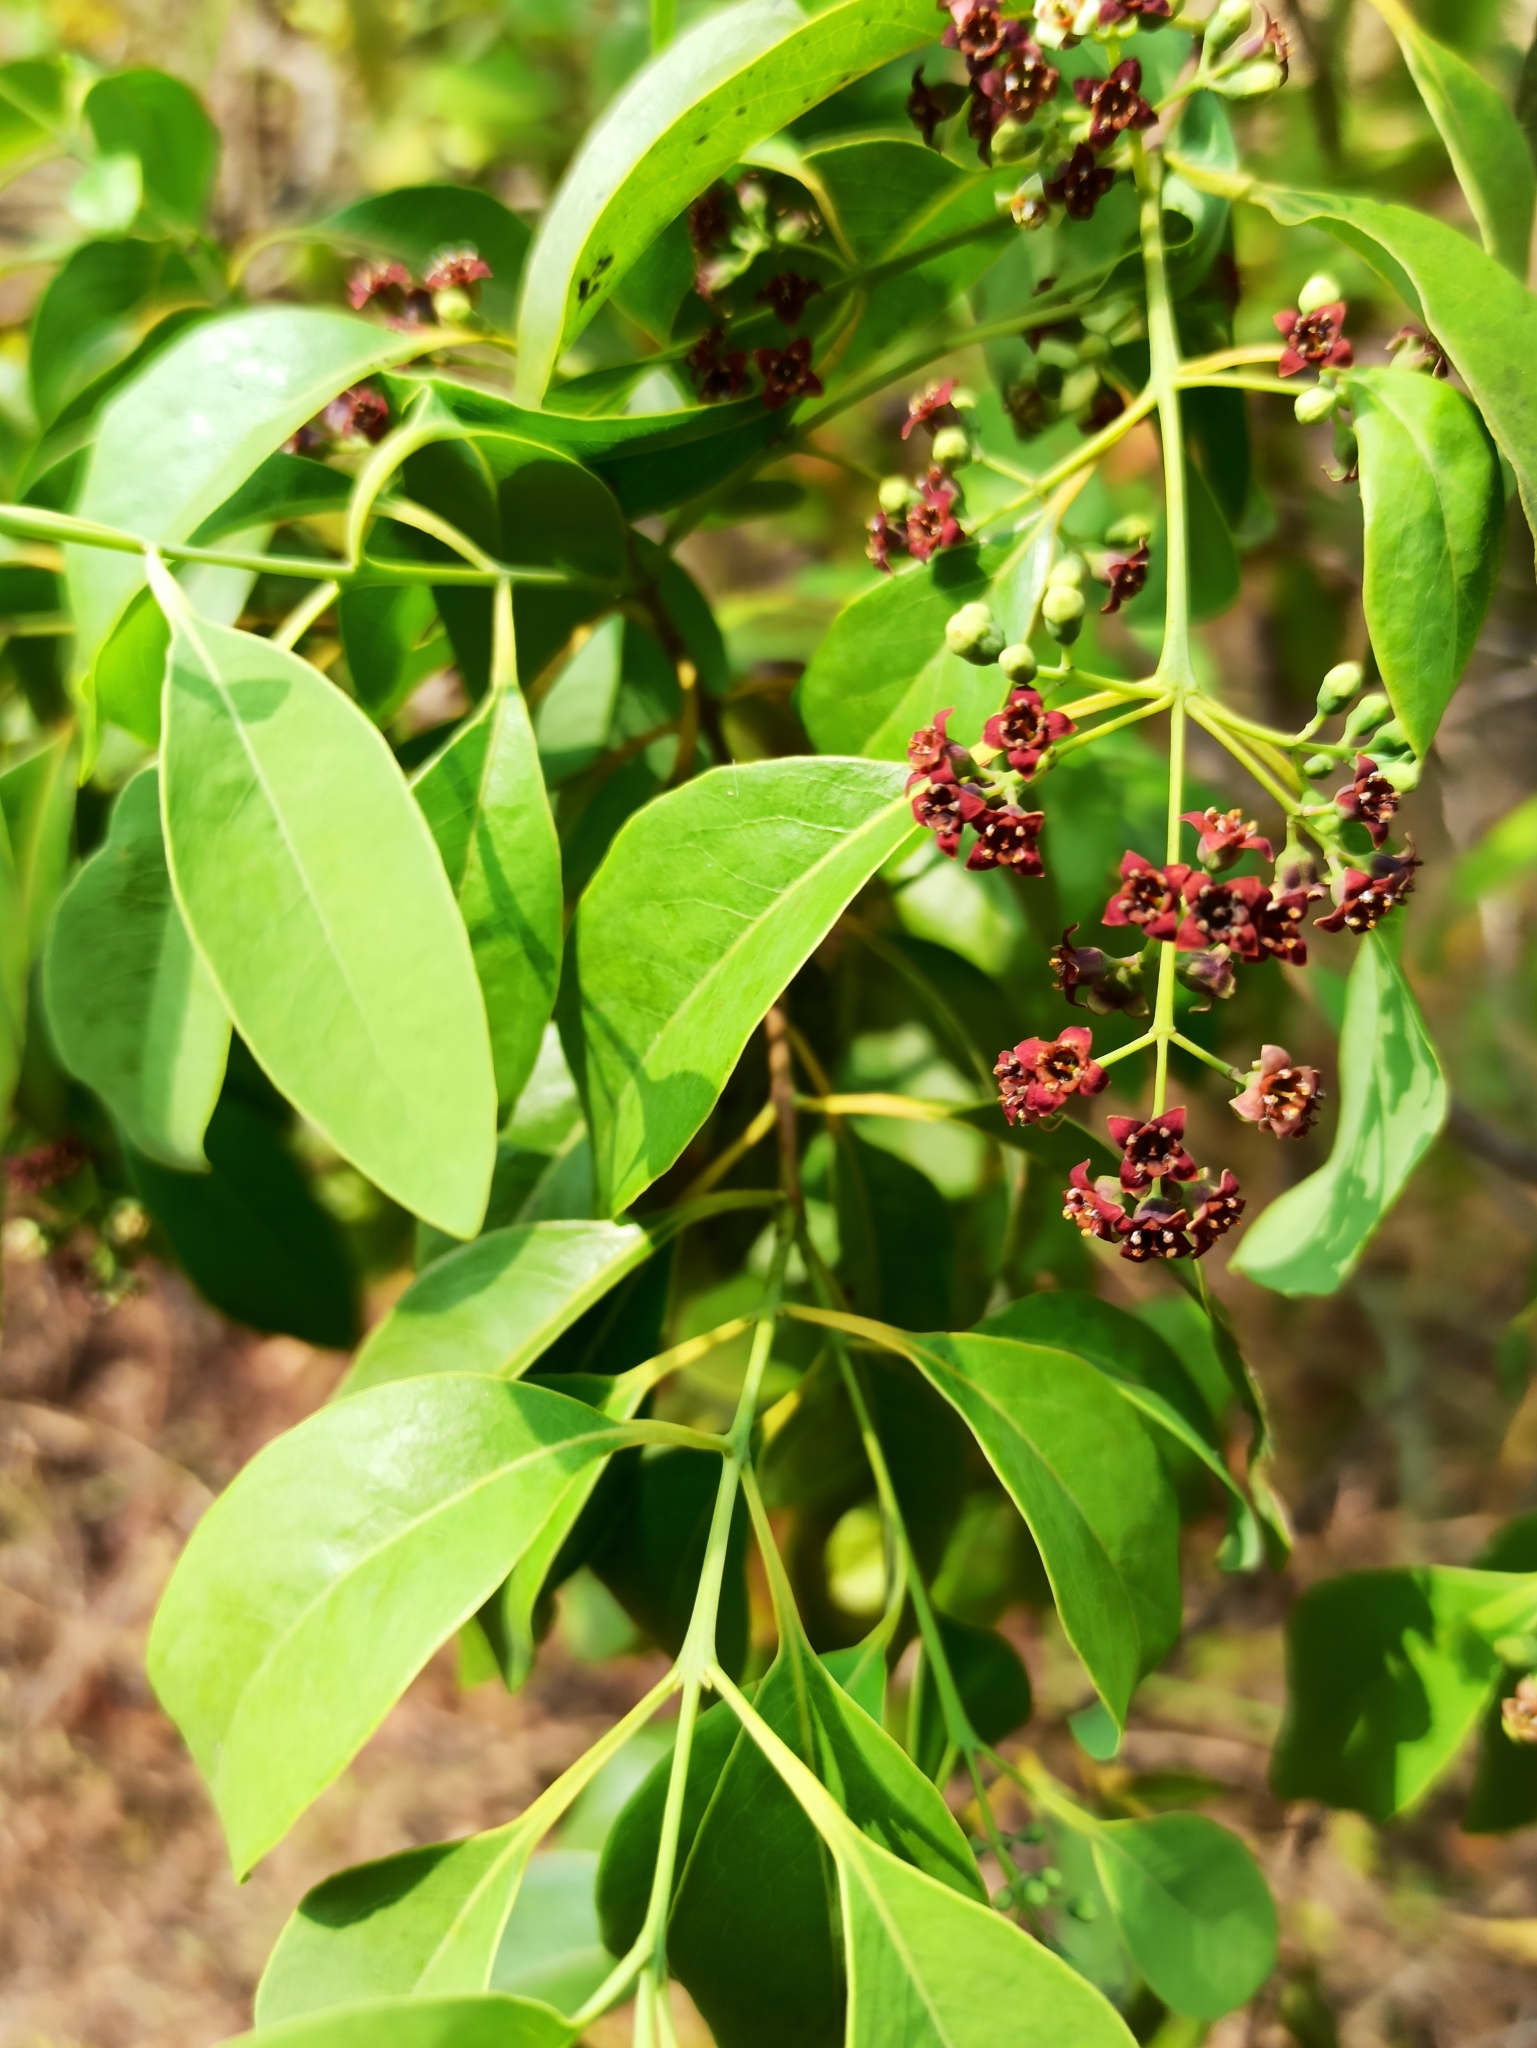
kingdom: Plantae
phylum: Tracheophyta
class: Magnoliopsida
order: Santalales
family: Santalaceae
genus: Santalum
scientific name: Santalum album
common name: Indian sandalwood
